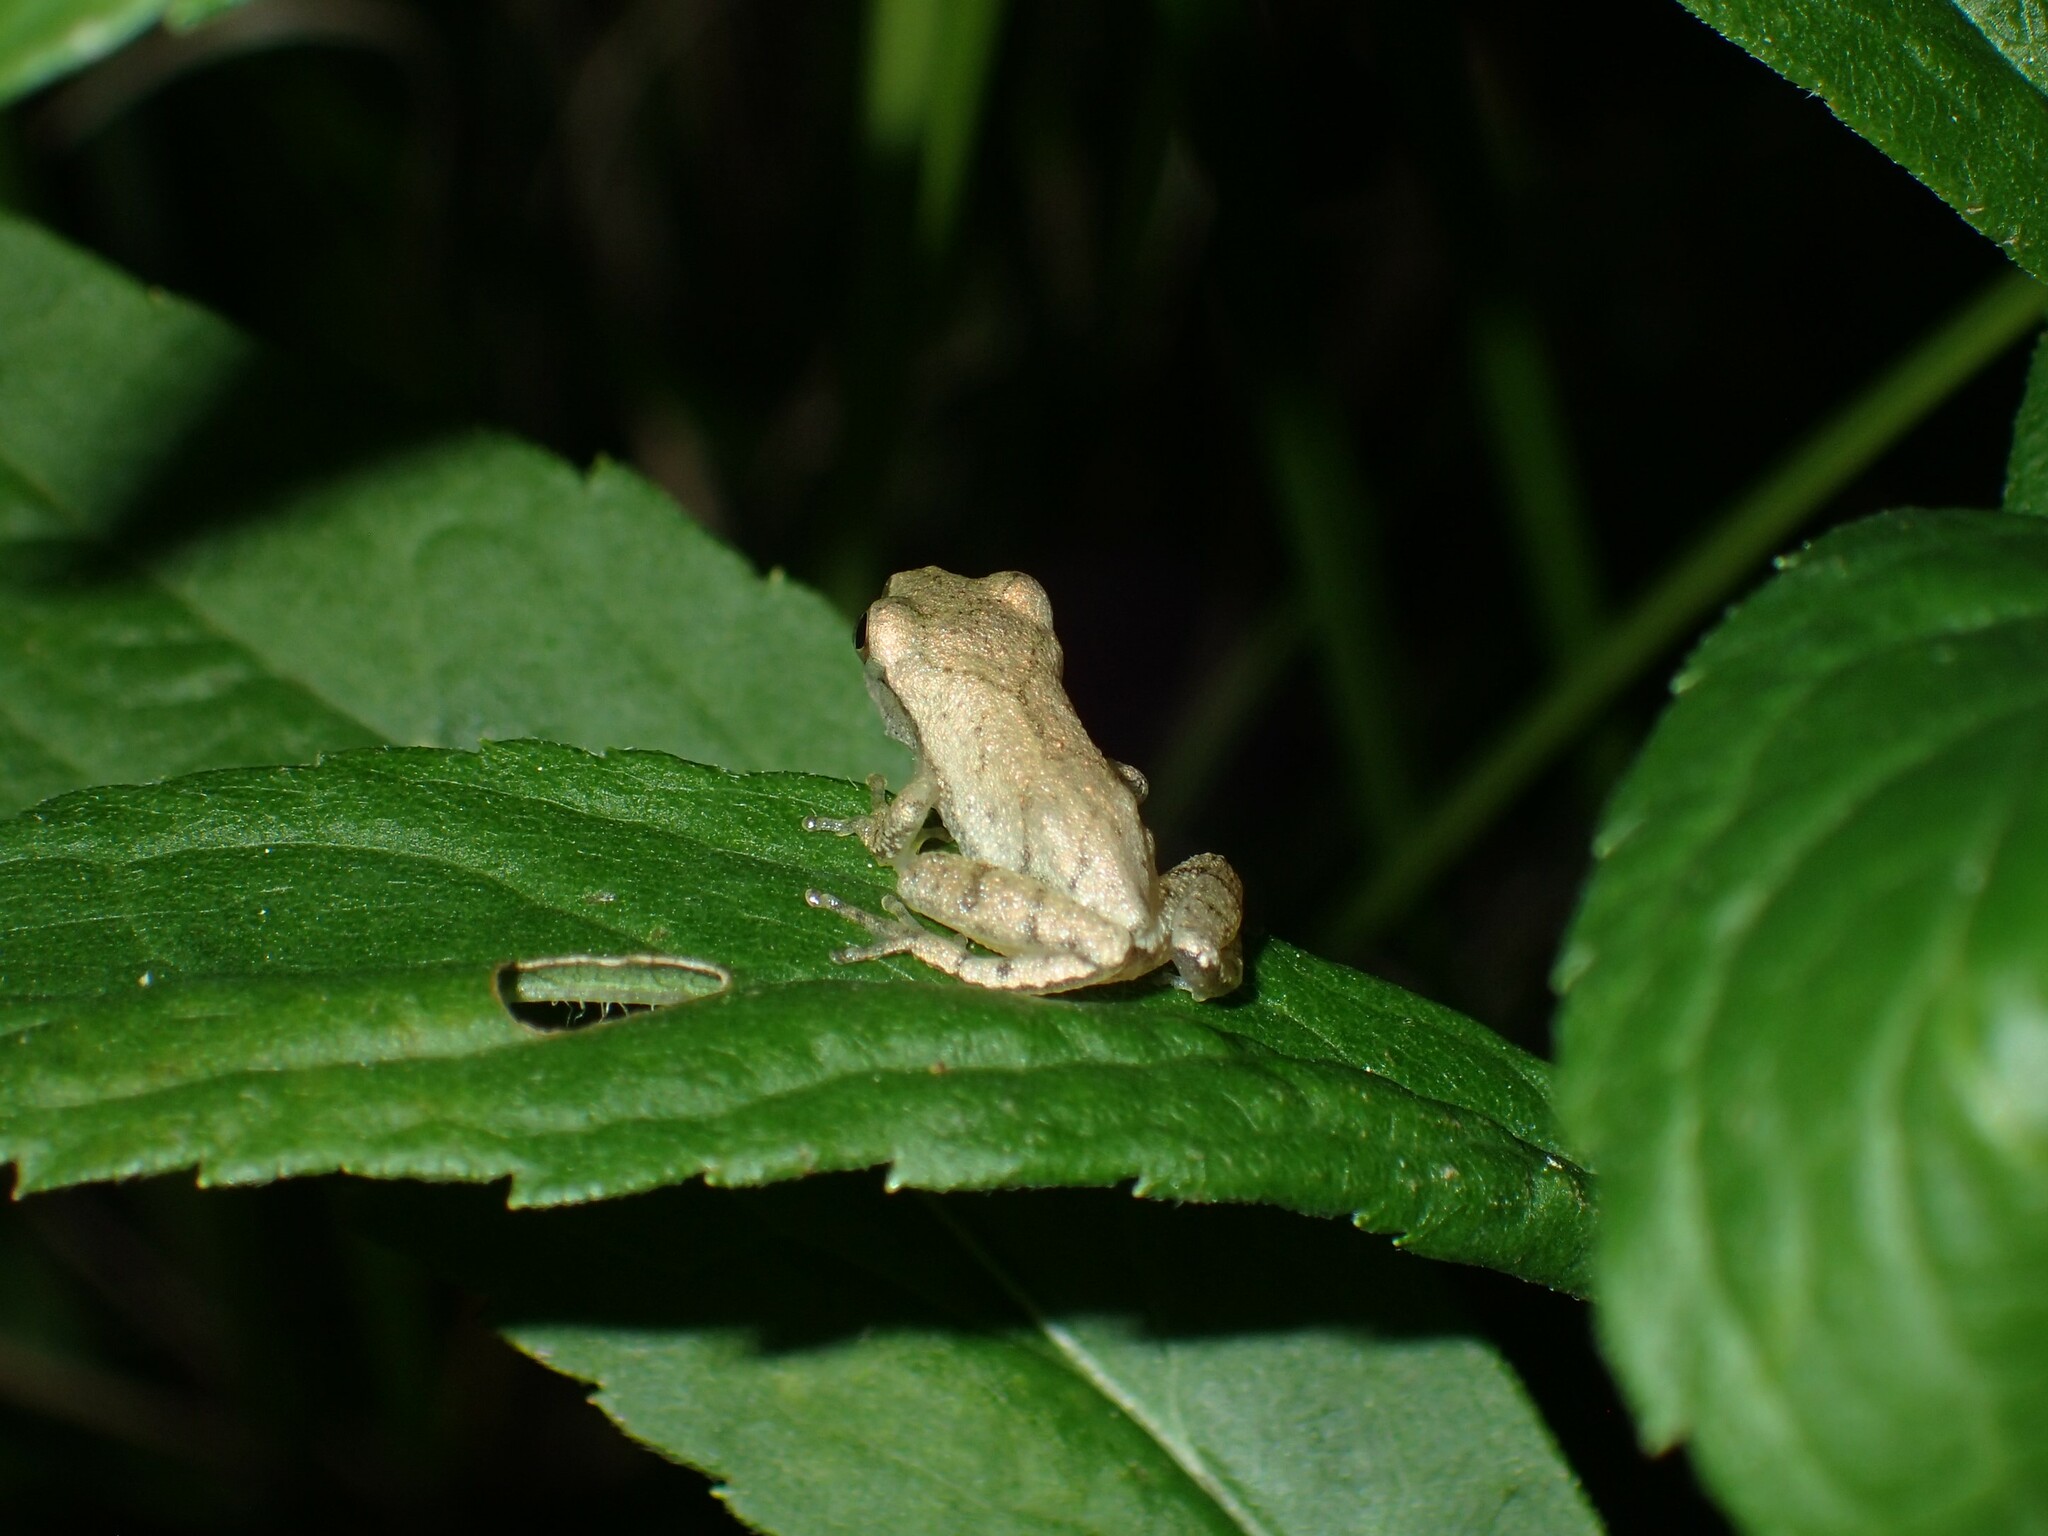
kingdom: Animalia
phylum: Chordata
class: Amphibia
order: Anura
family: Hylidae
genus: Pseudacris
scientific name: Pseudacris crucifer
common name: Spring peeper
